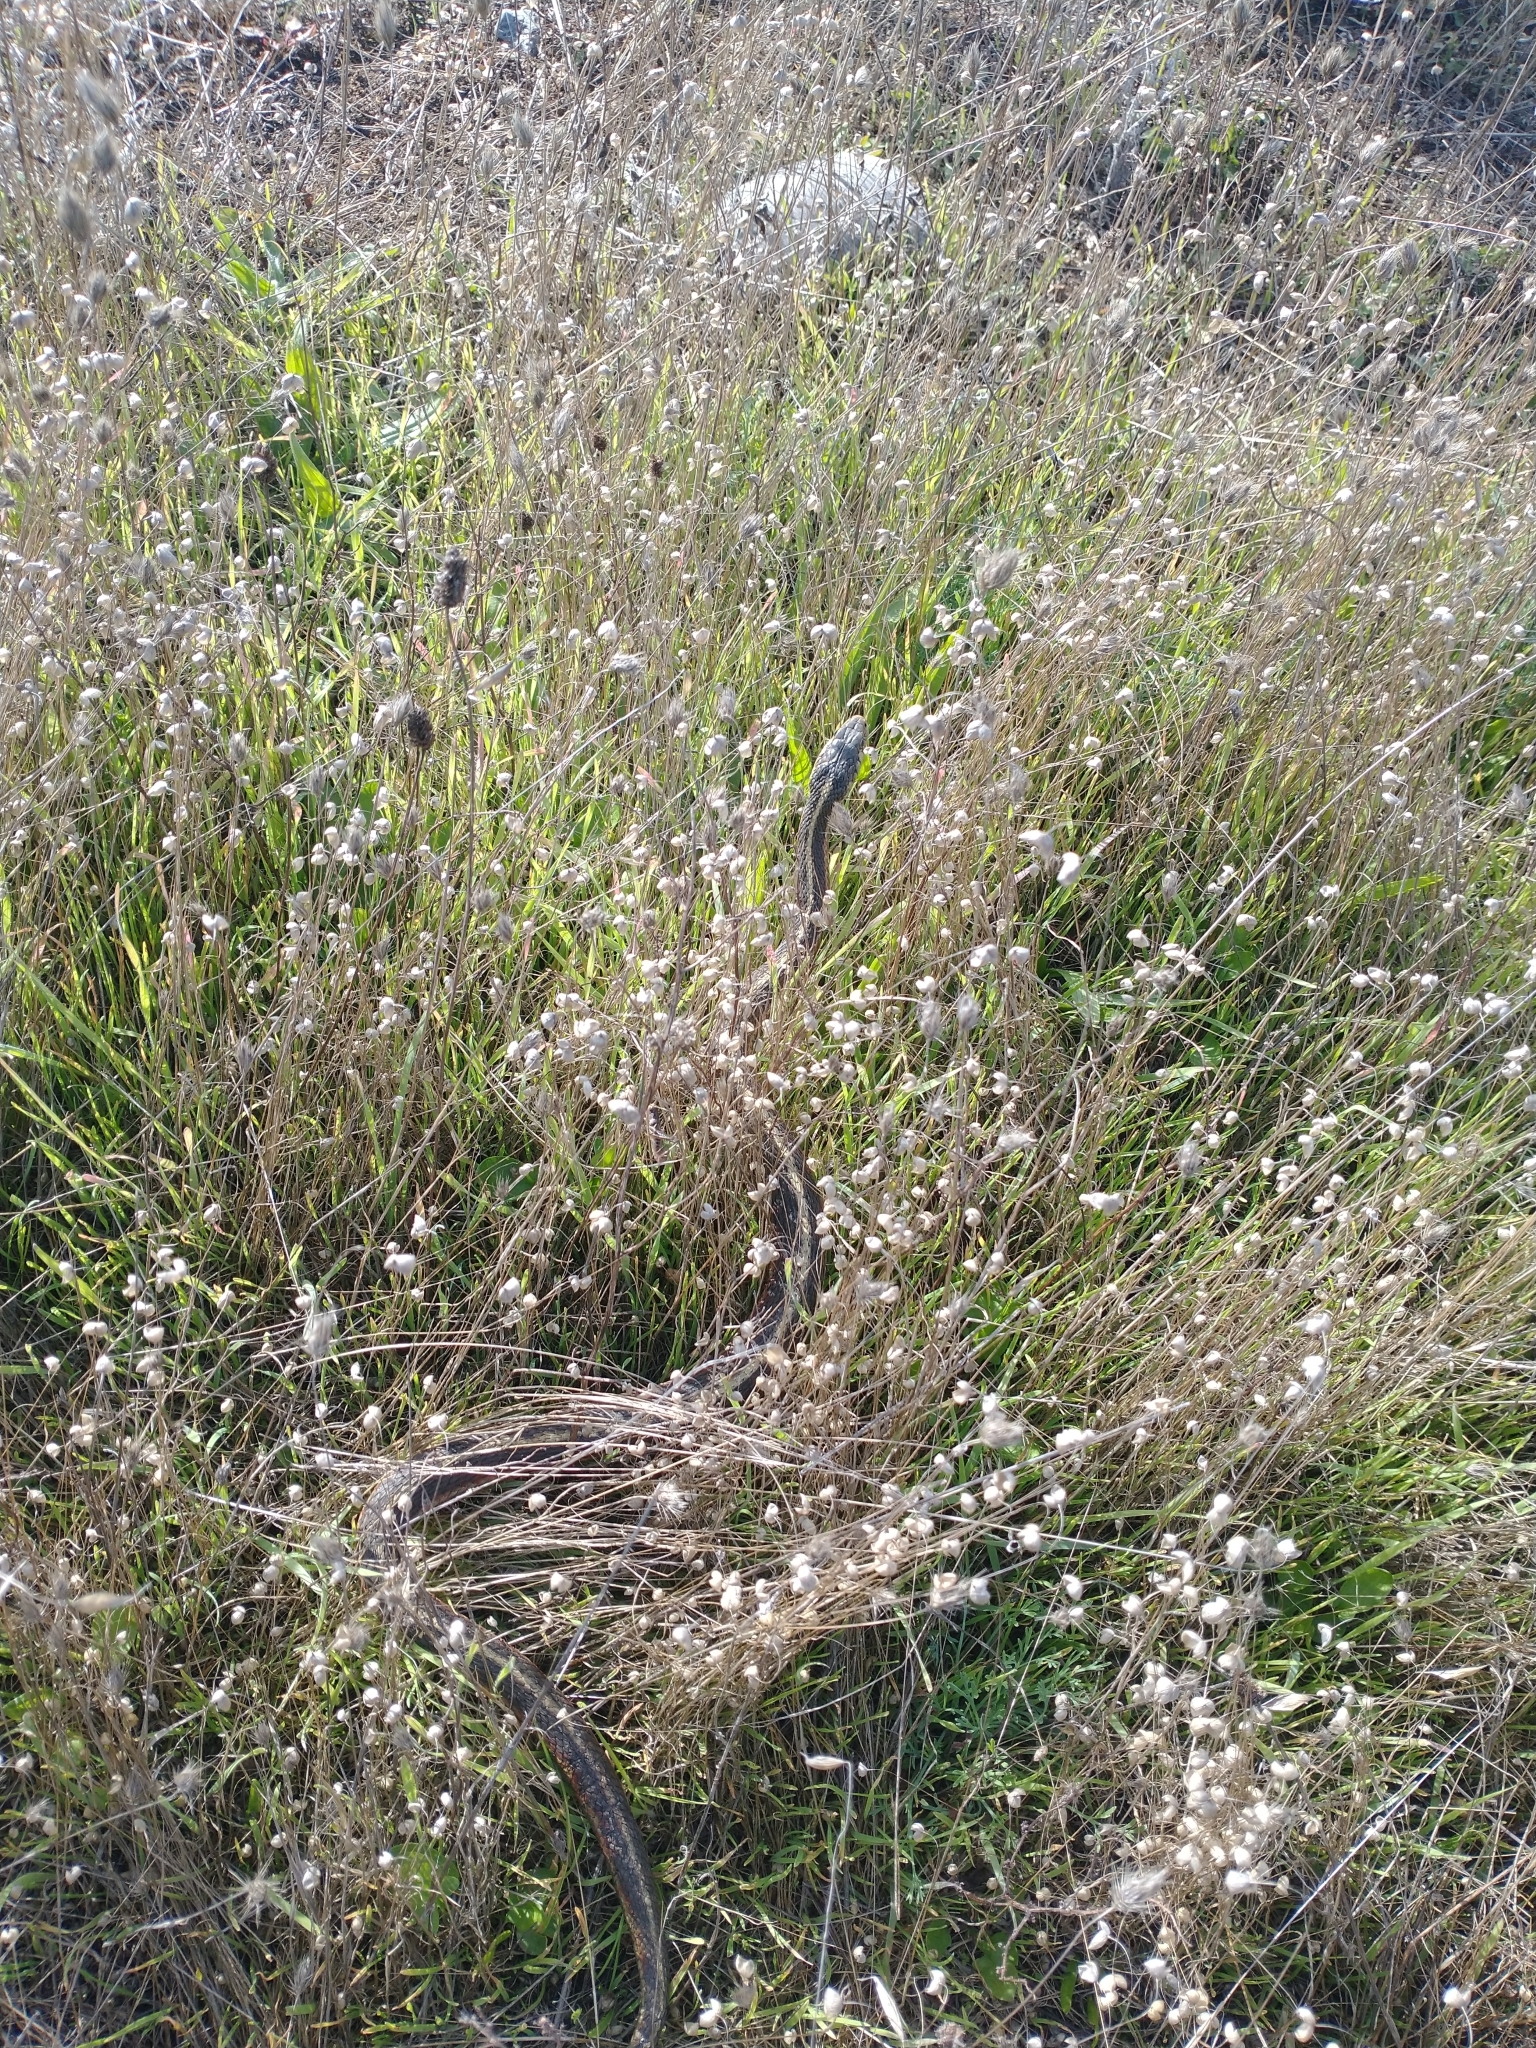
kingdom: Animalia
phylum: Chordata
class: Squamata
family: Colubridae
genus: Thamnophis
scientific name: Thamnophis elegans
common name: Western terrestrial garter snake
